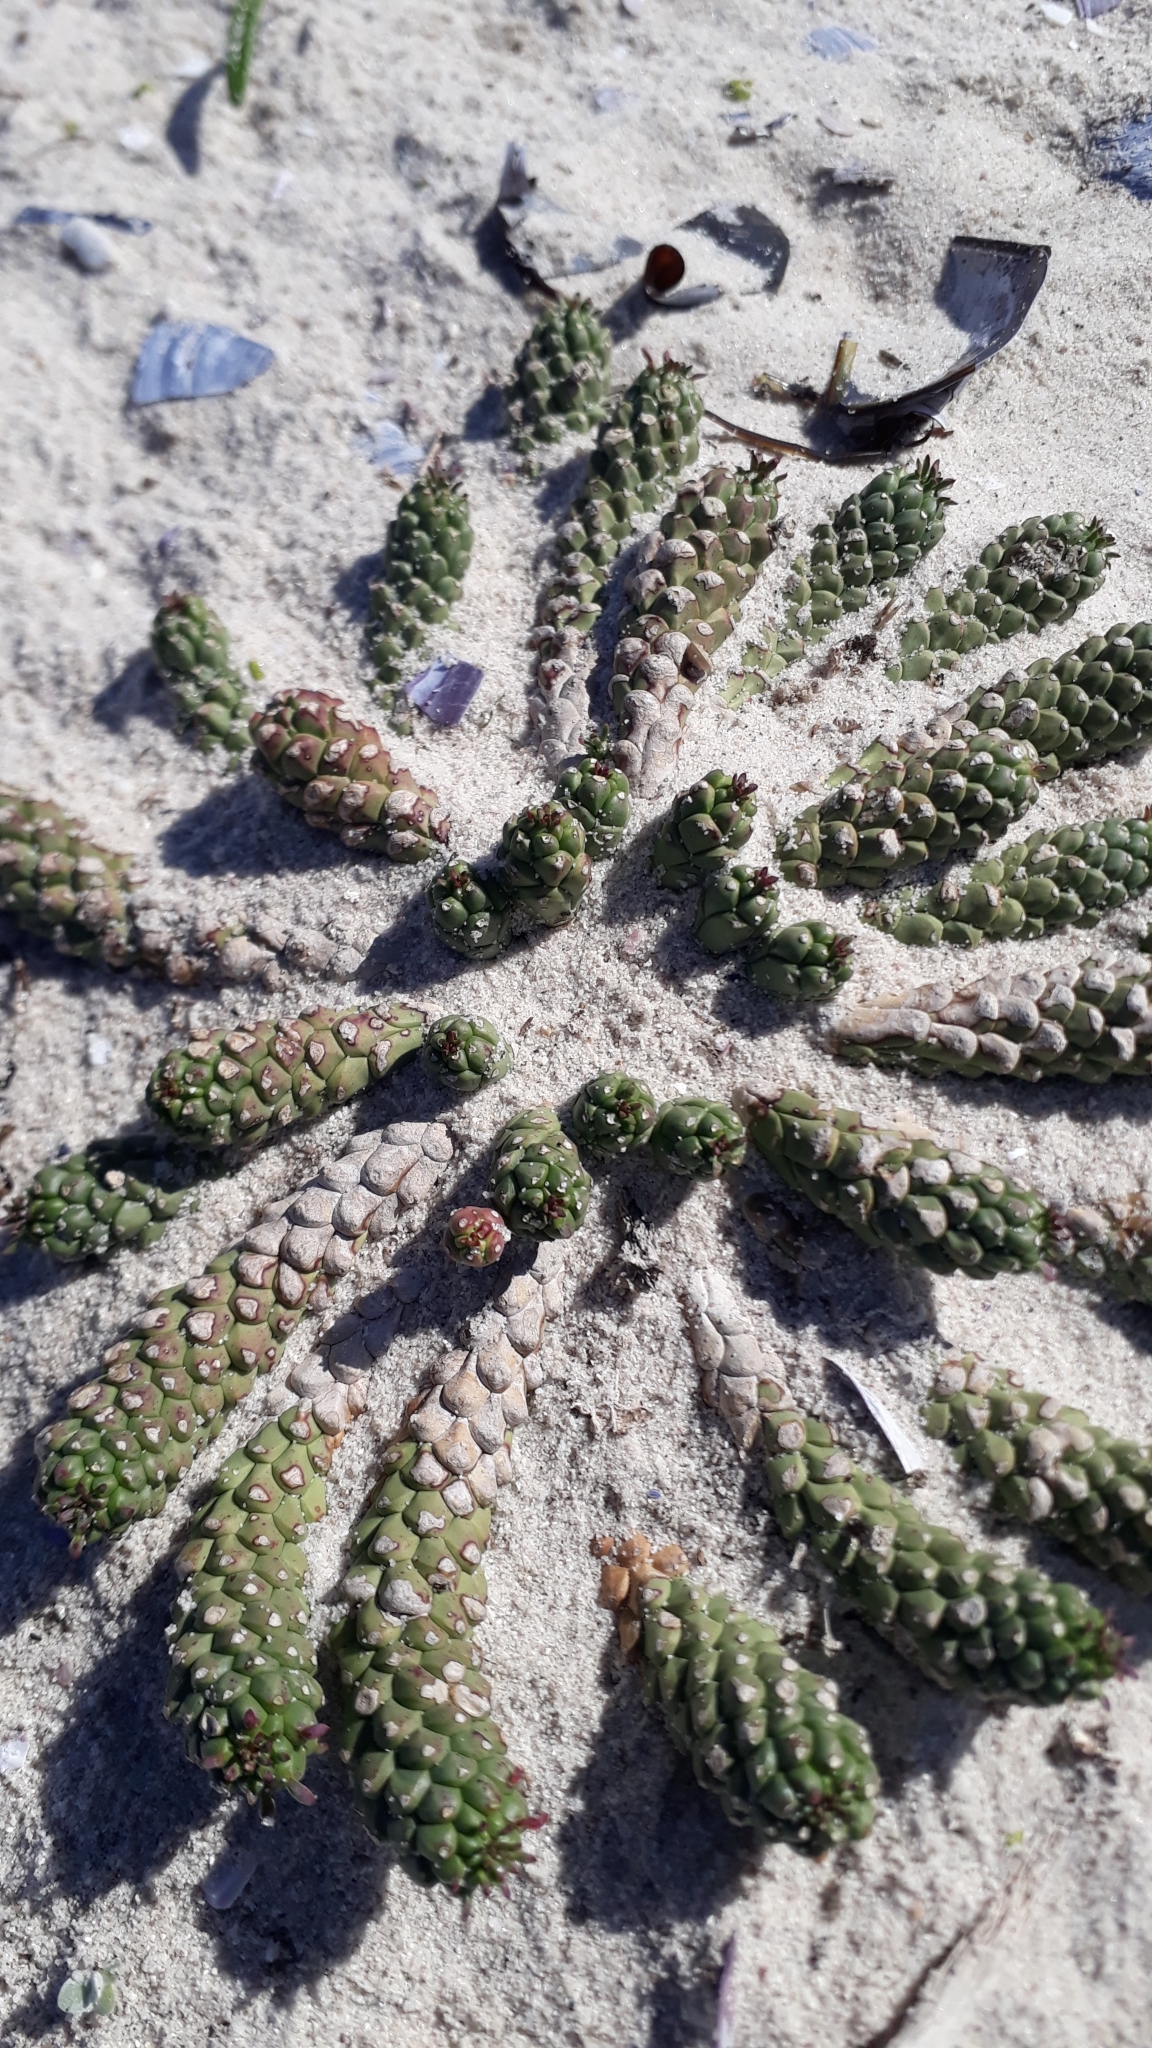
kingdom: Plantae
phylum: Tracheophyta
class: Magnoliopsida
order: Malpighiales
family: Euphorbiaceae
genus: Euphorbia
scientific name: Euphorbia caput-medusae
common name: Medusa's-head
